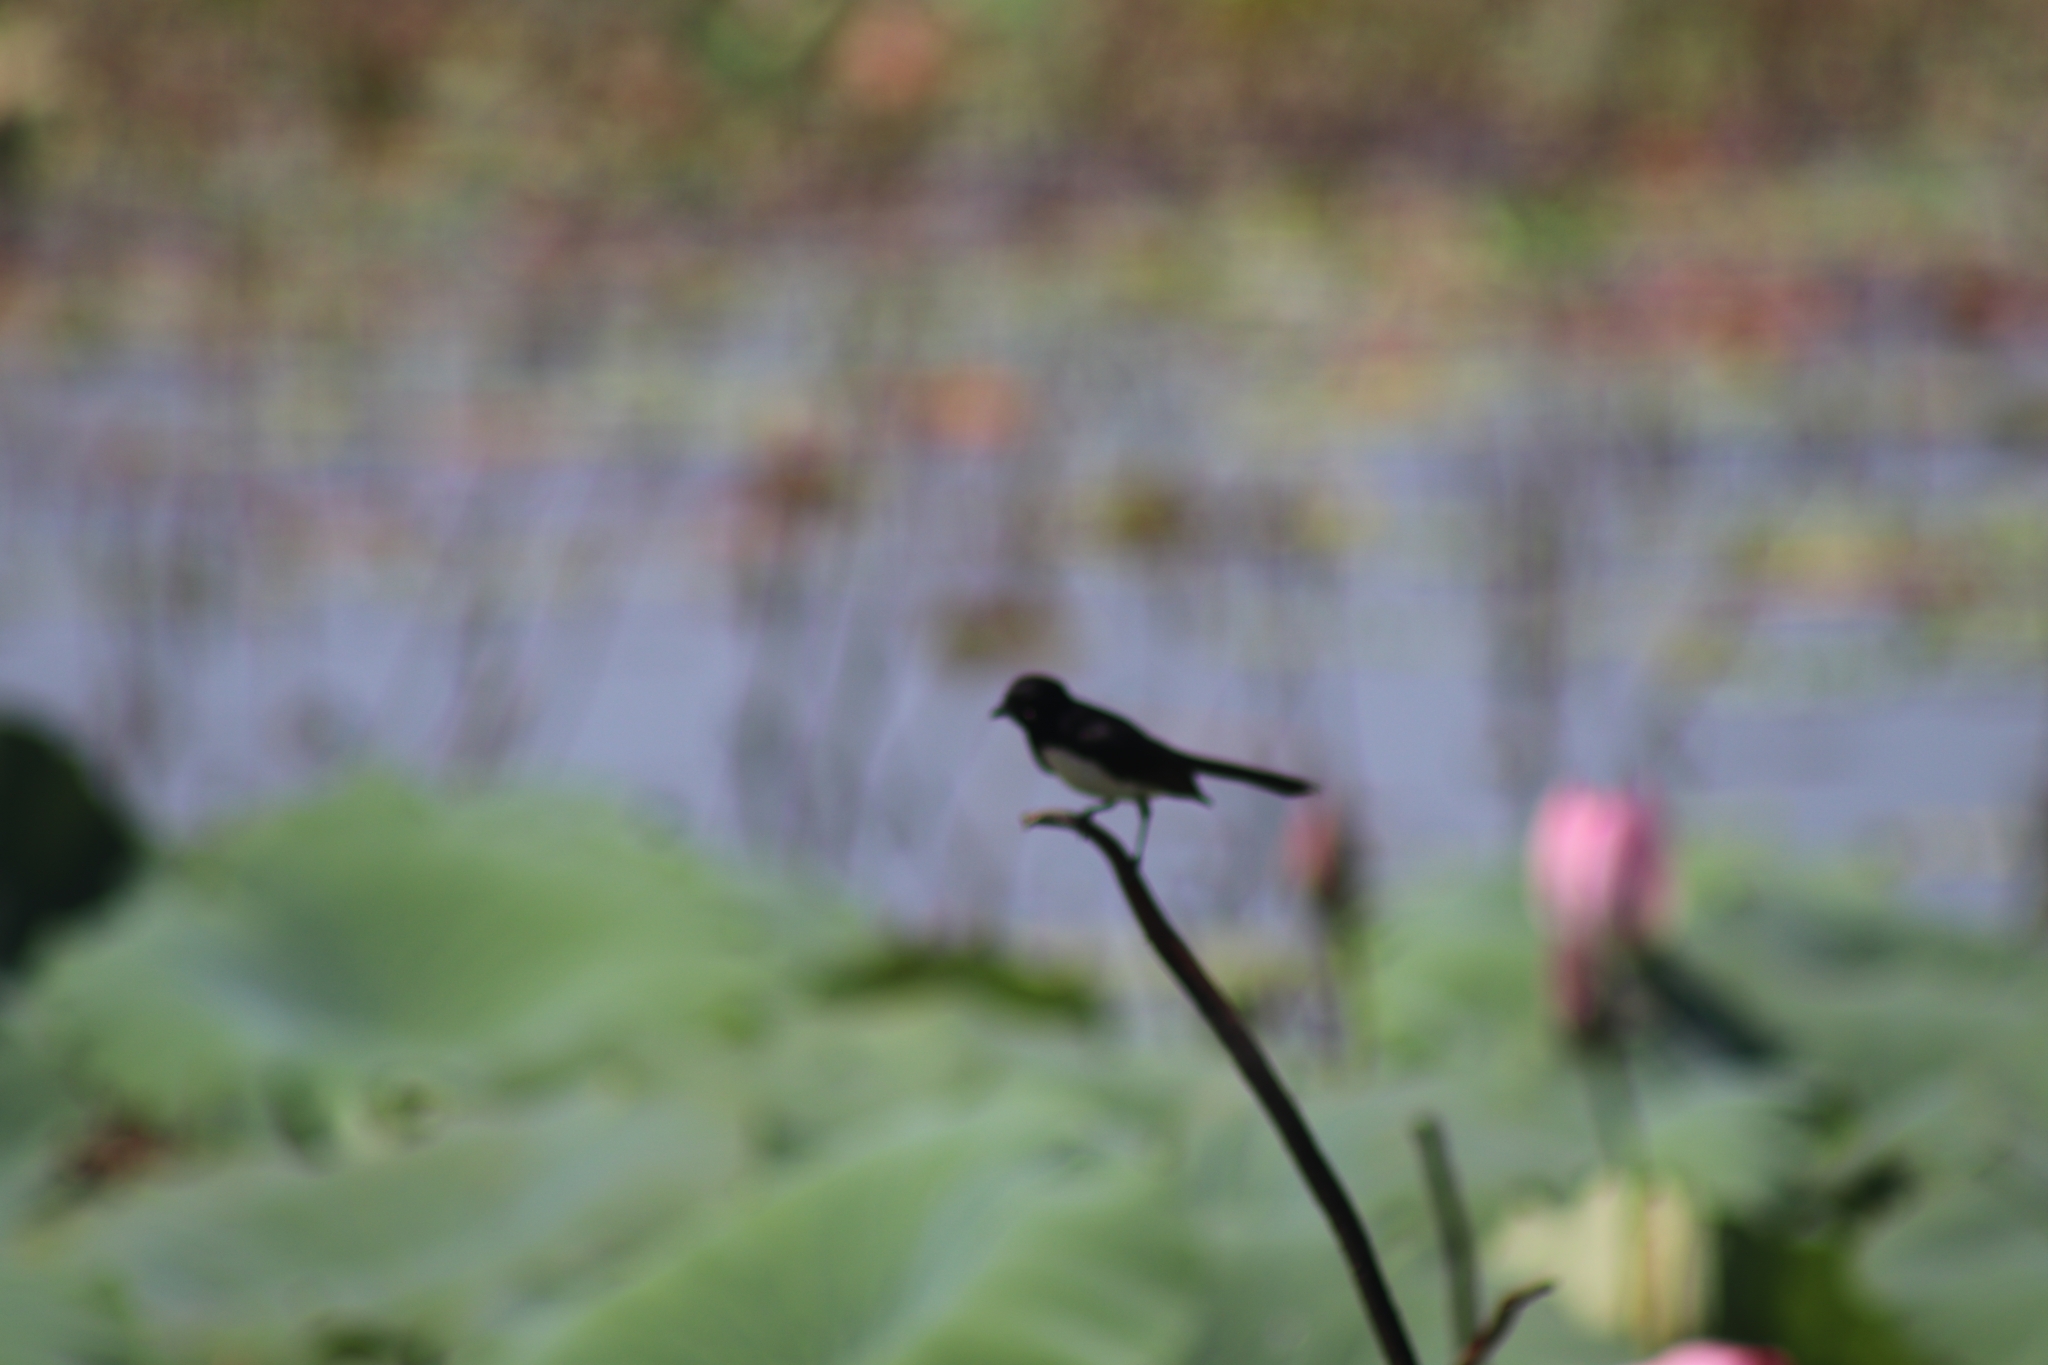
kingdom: Animalia
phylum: Chordata
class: Aves
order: Passeriformes
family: Rhipiduridae
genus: Rhipidura
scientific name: Rhipidura leucophrys
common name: Willie wagtail
